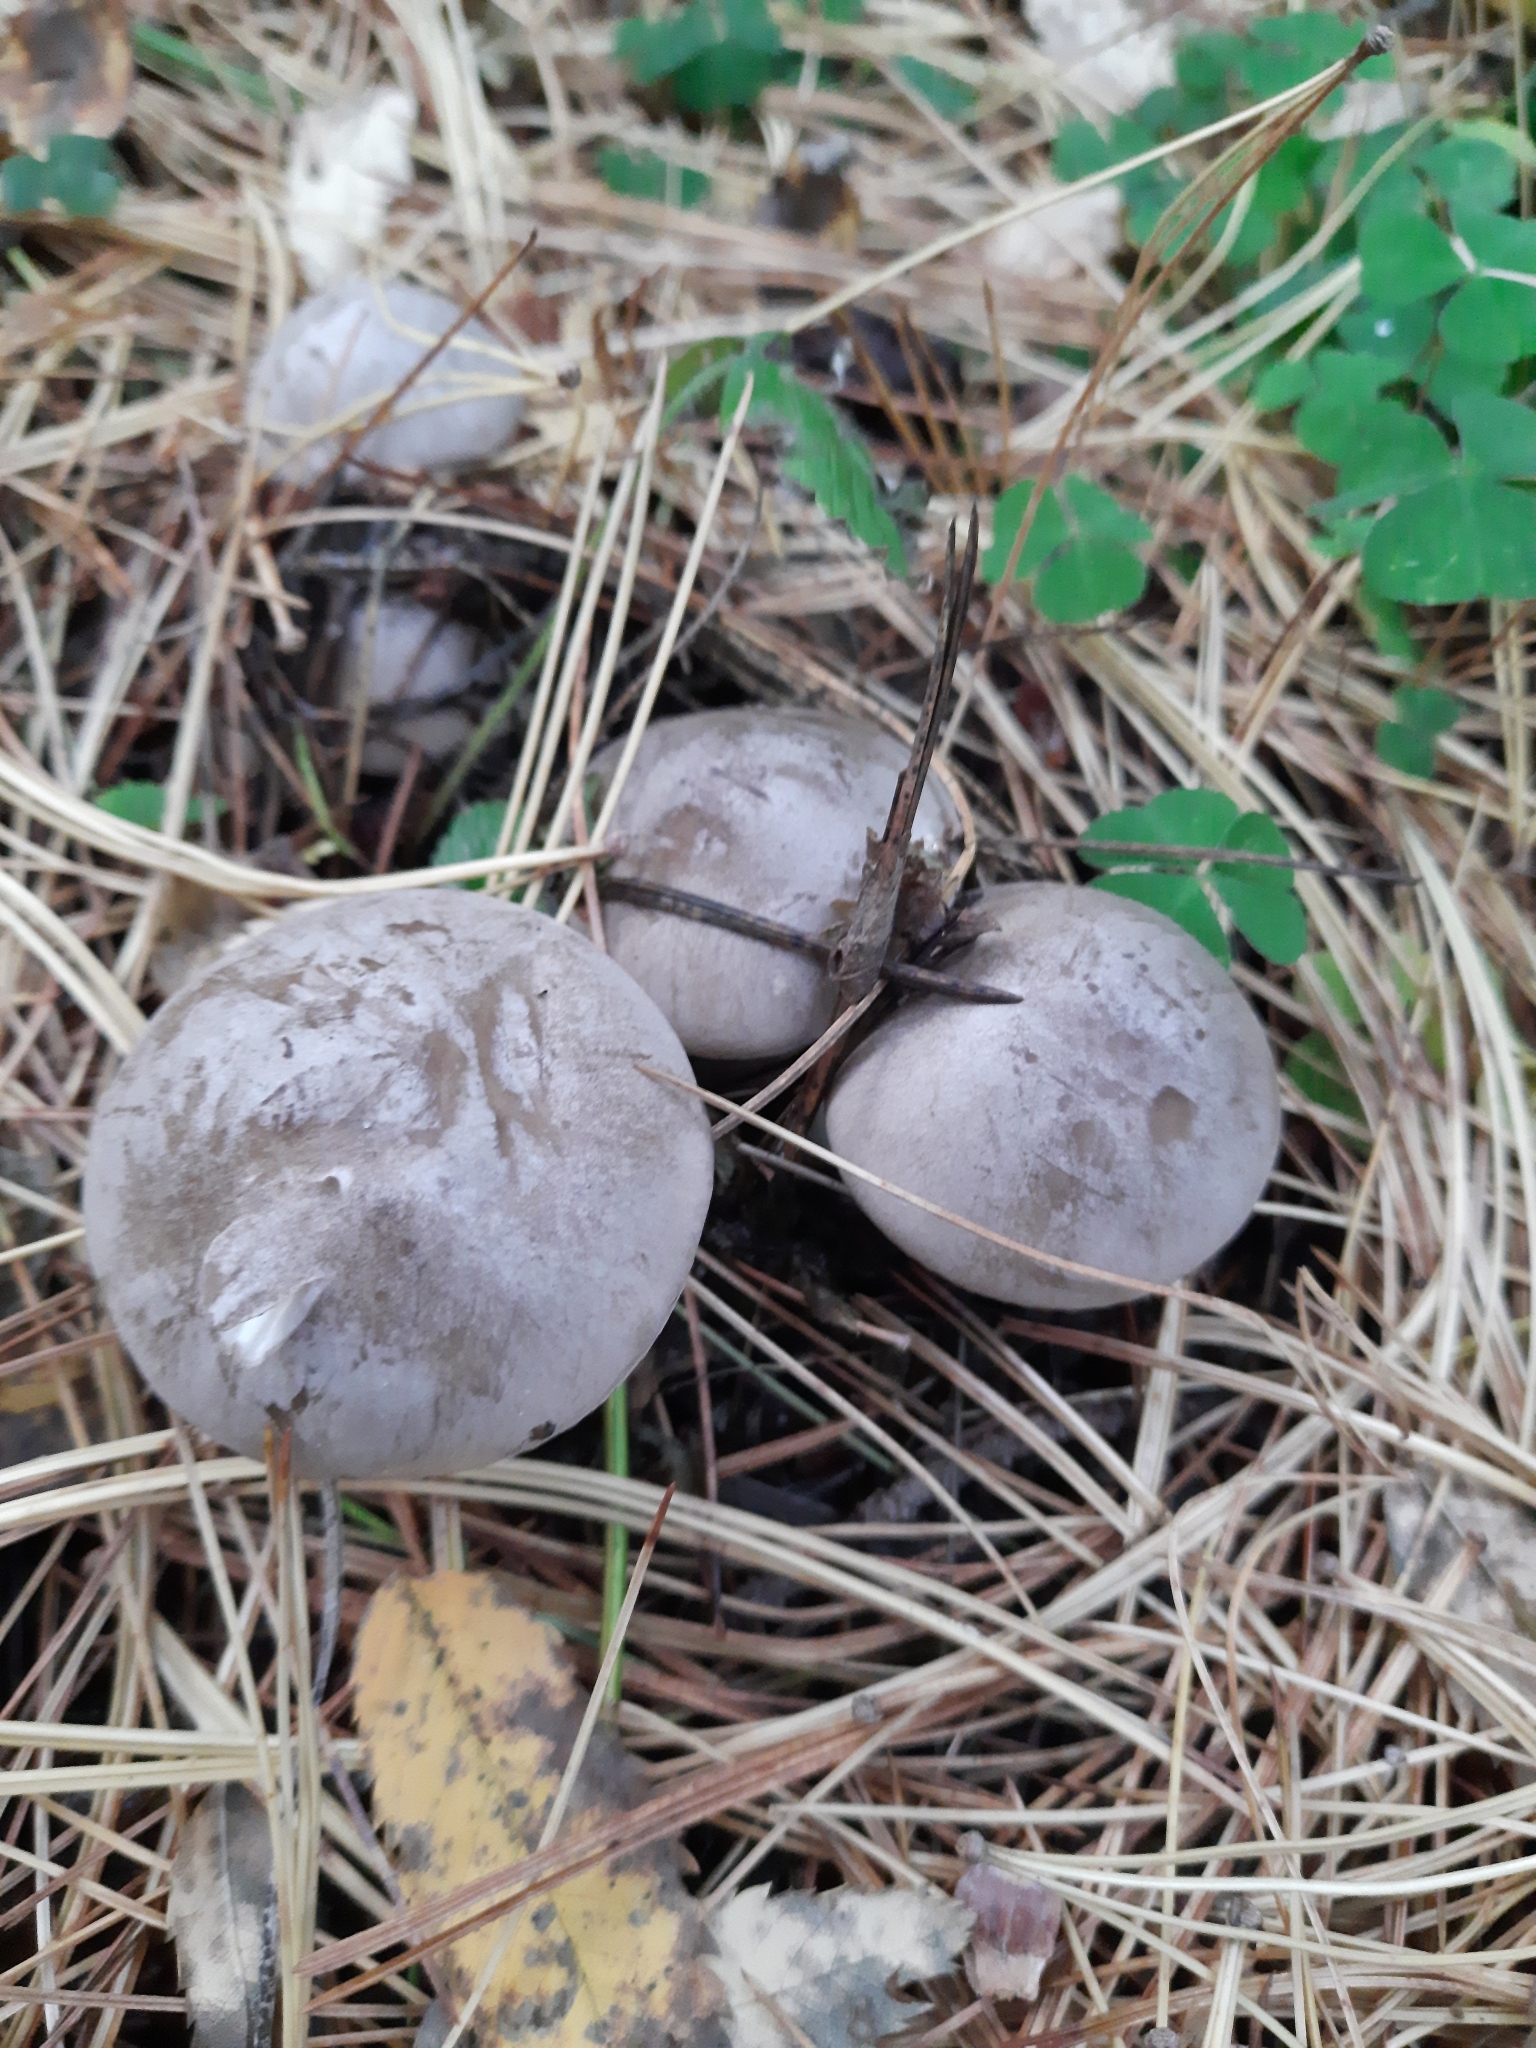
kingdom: Fungi
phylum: Basidiomycota
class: Agaricomycetes
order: Agaricales
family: Tricholomataceae
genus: Clitocybe
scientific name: Clitocybe nebularis
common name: Clouded agaric
